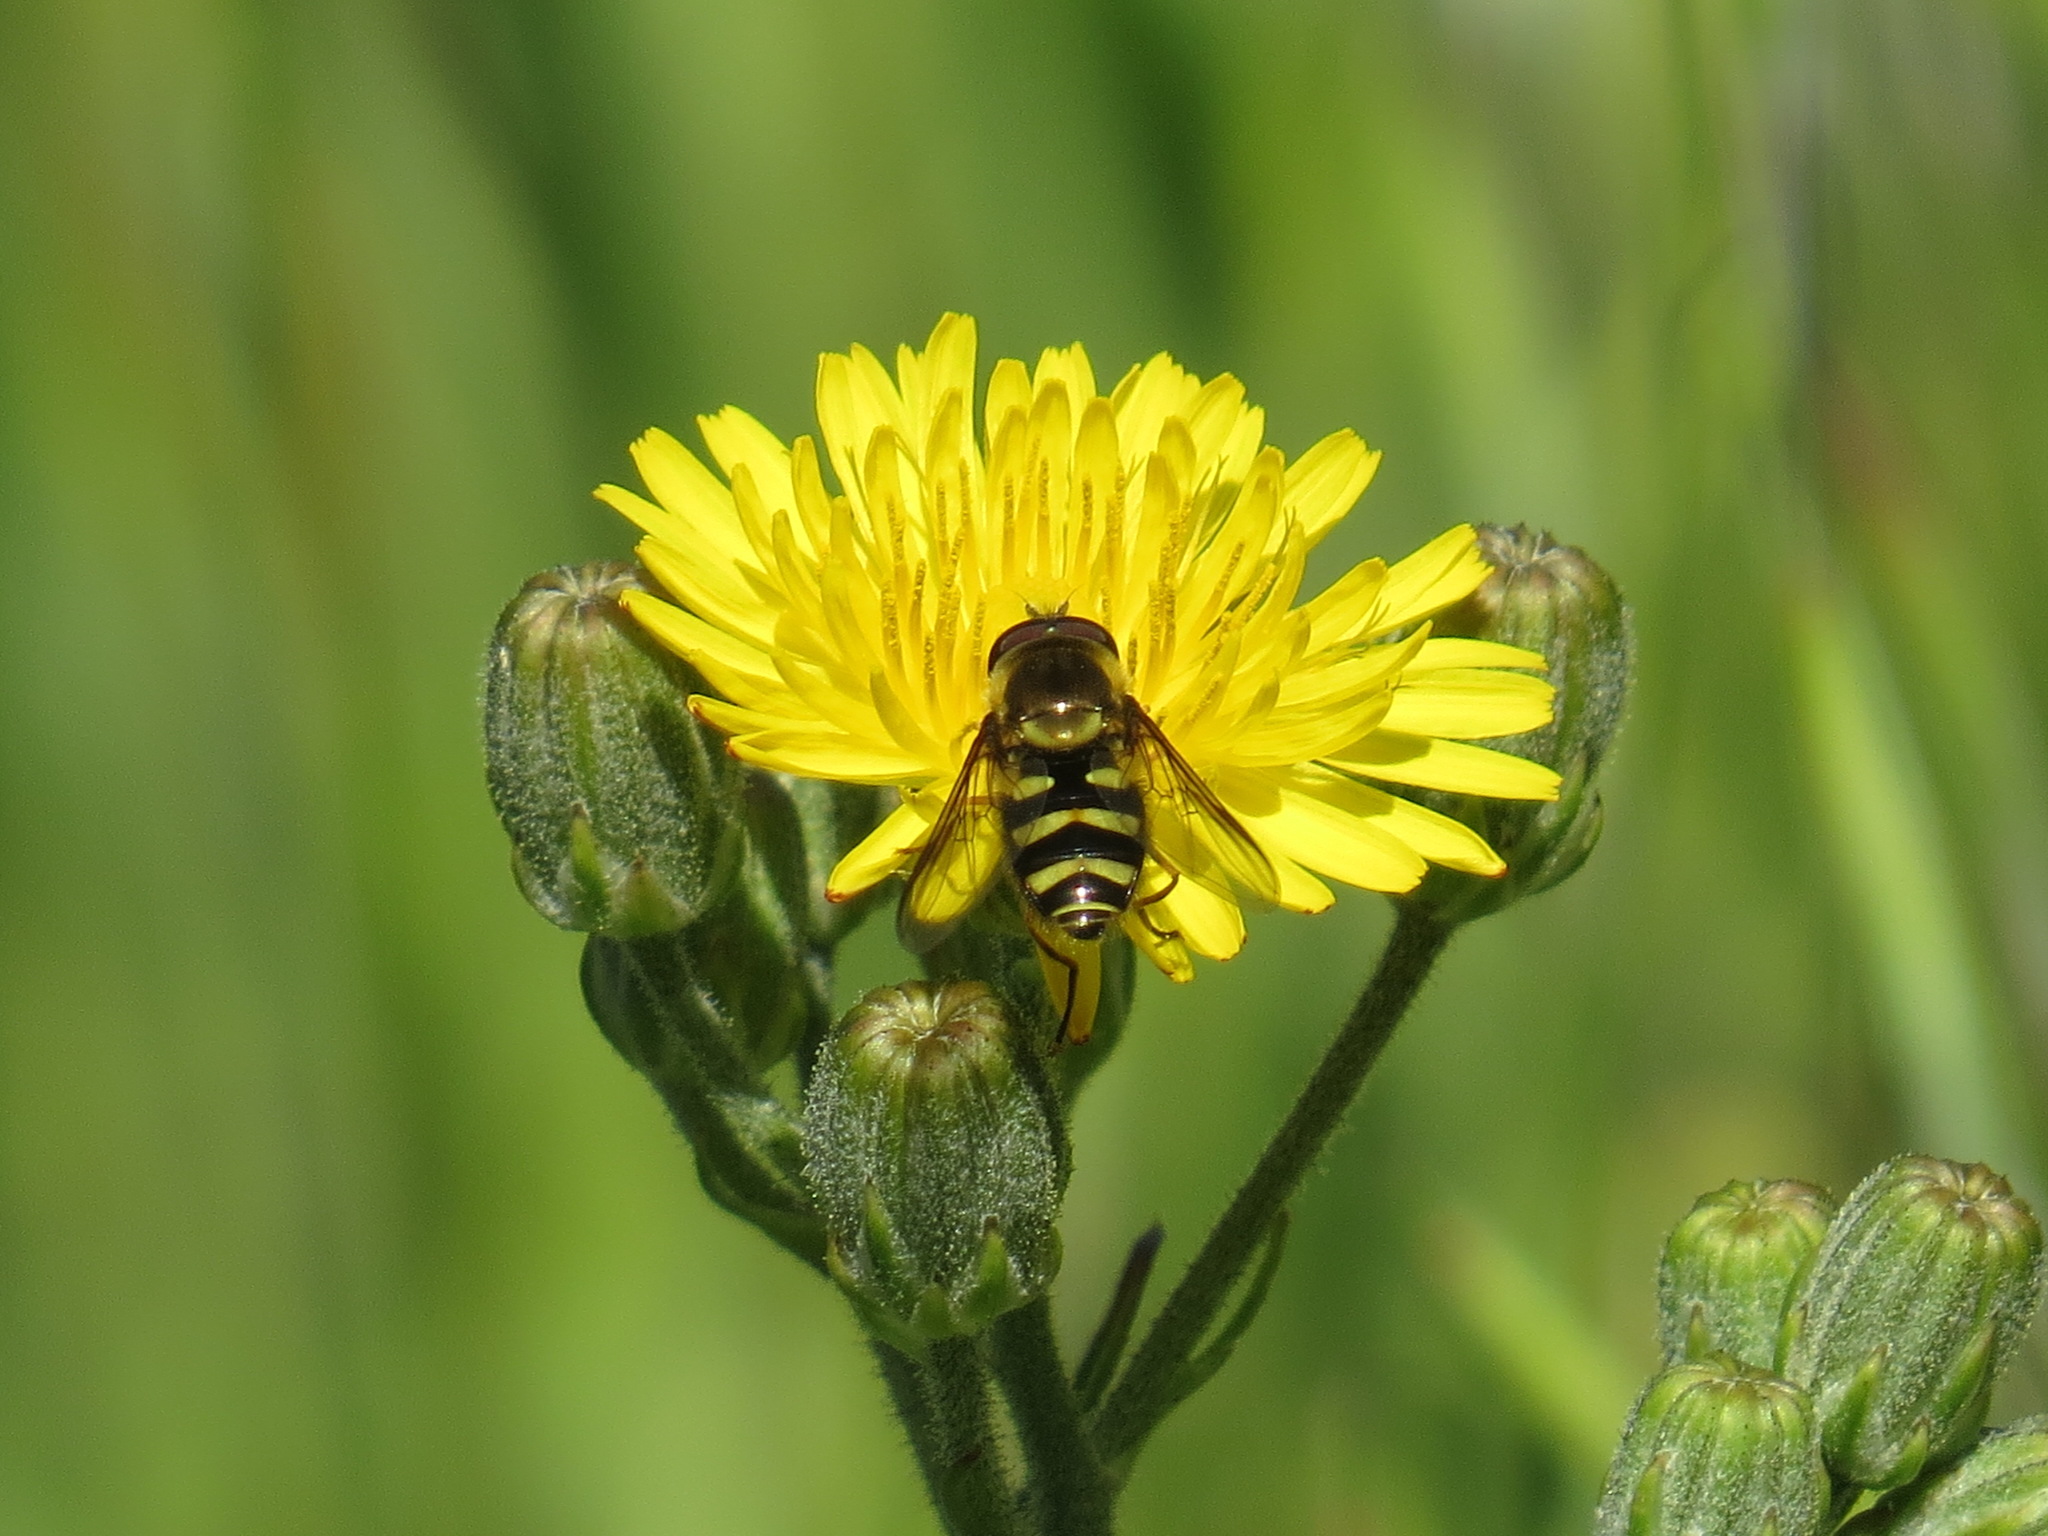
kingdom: Animalia
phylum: Arthropoda
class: Insecta
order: Diptera
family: Syrphidae
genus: Syrphus
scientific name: Syrphus opinator
